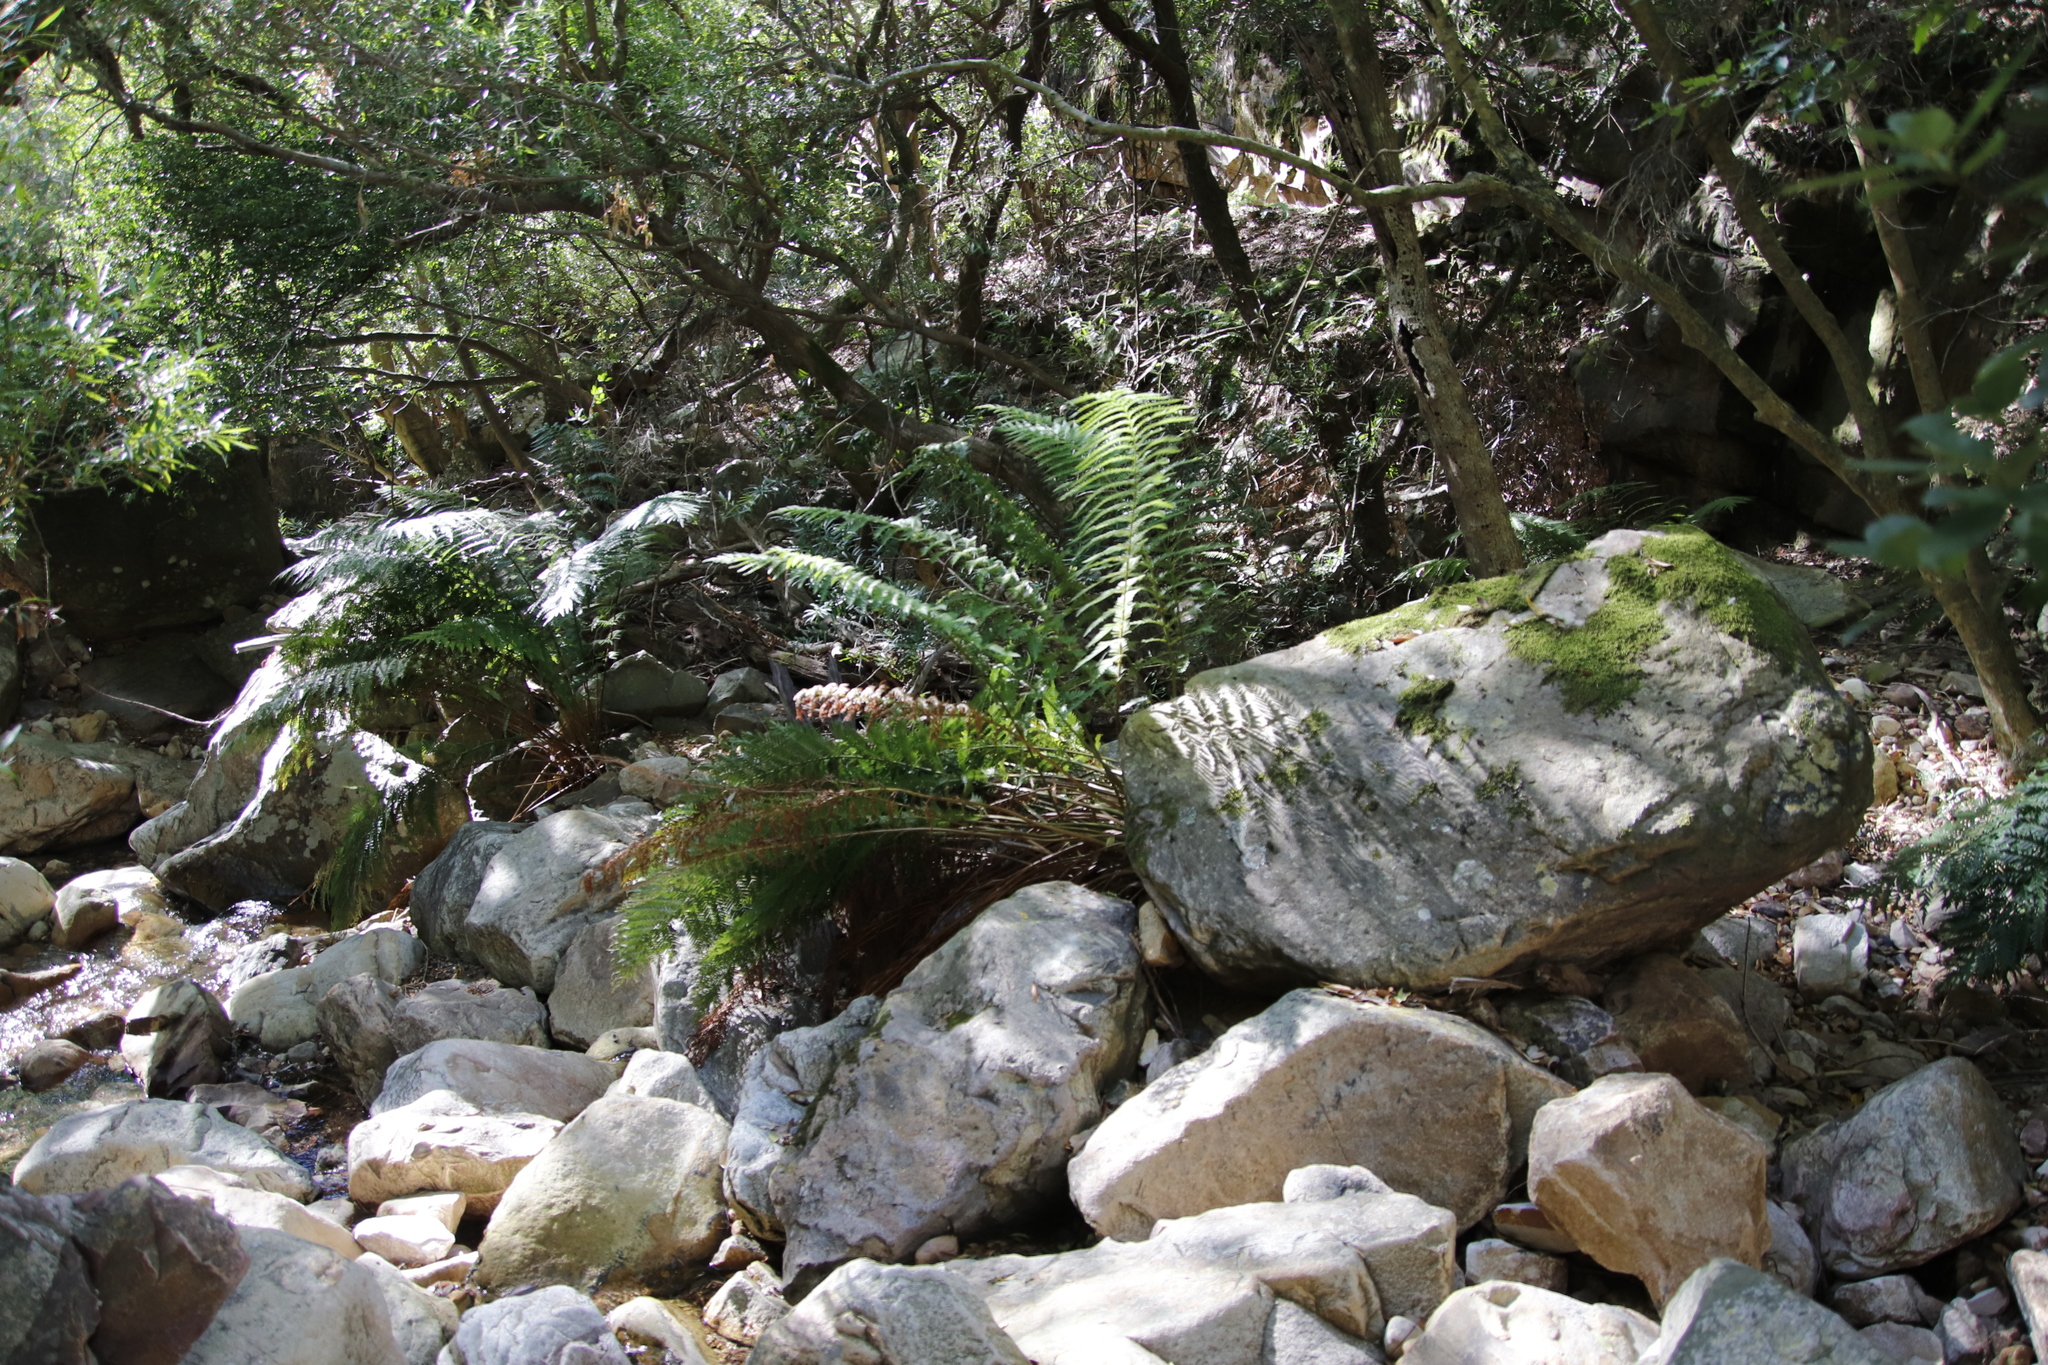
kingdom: Plantae
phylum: Tracheophyta
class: Polypodiopsida
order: Osmundales
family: Osmundaceae
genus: Todea
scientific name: Todea barbara
